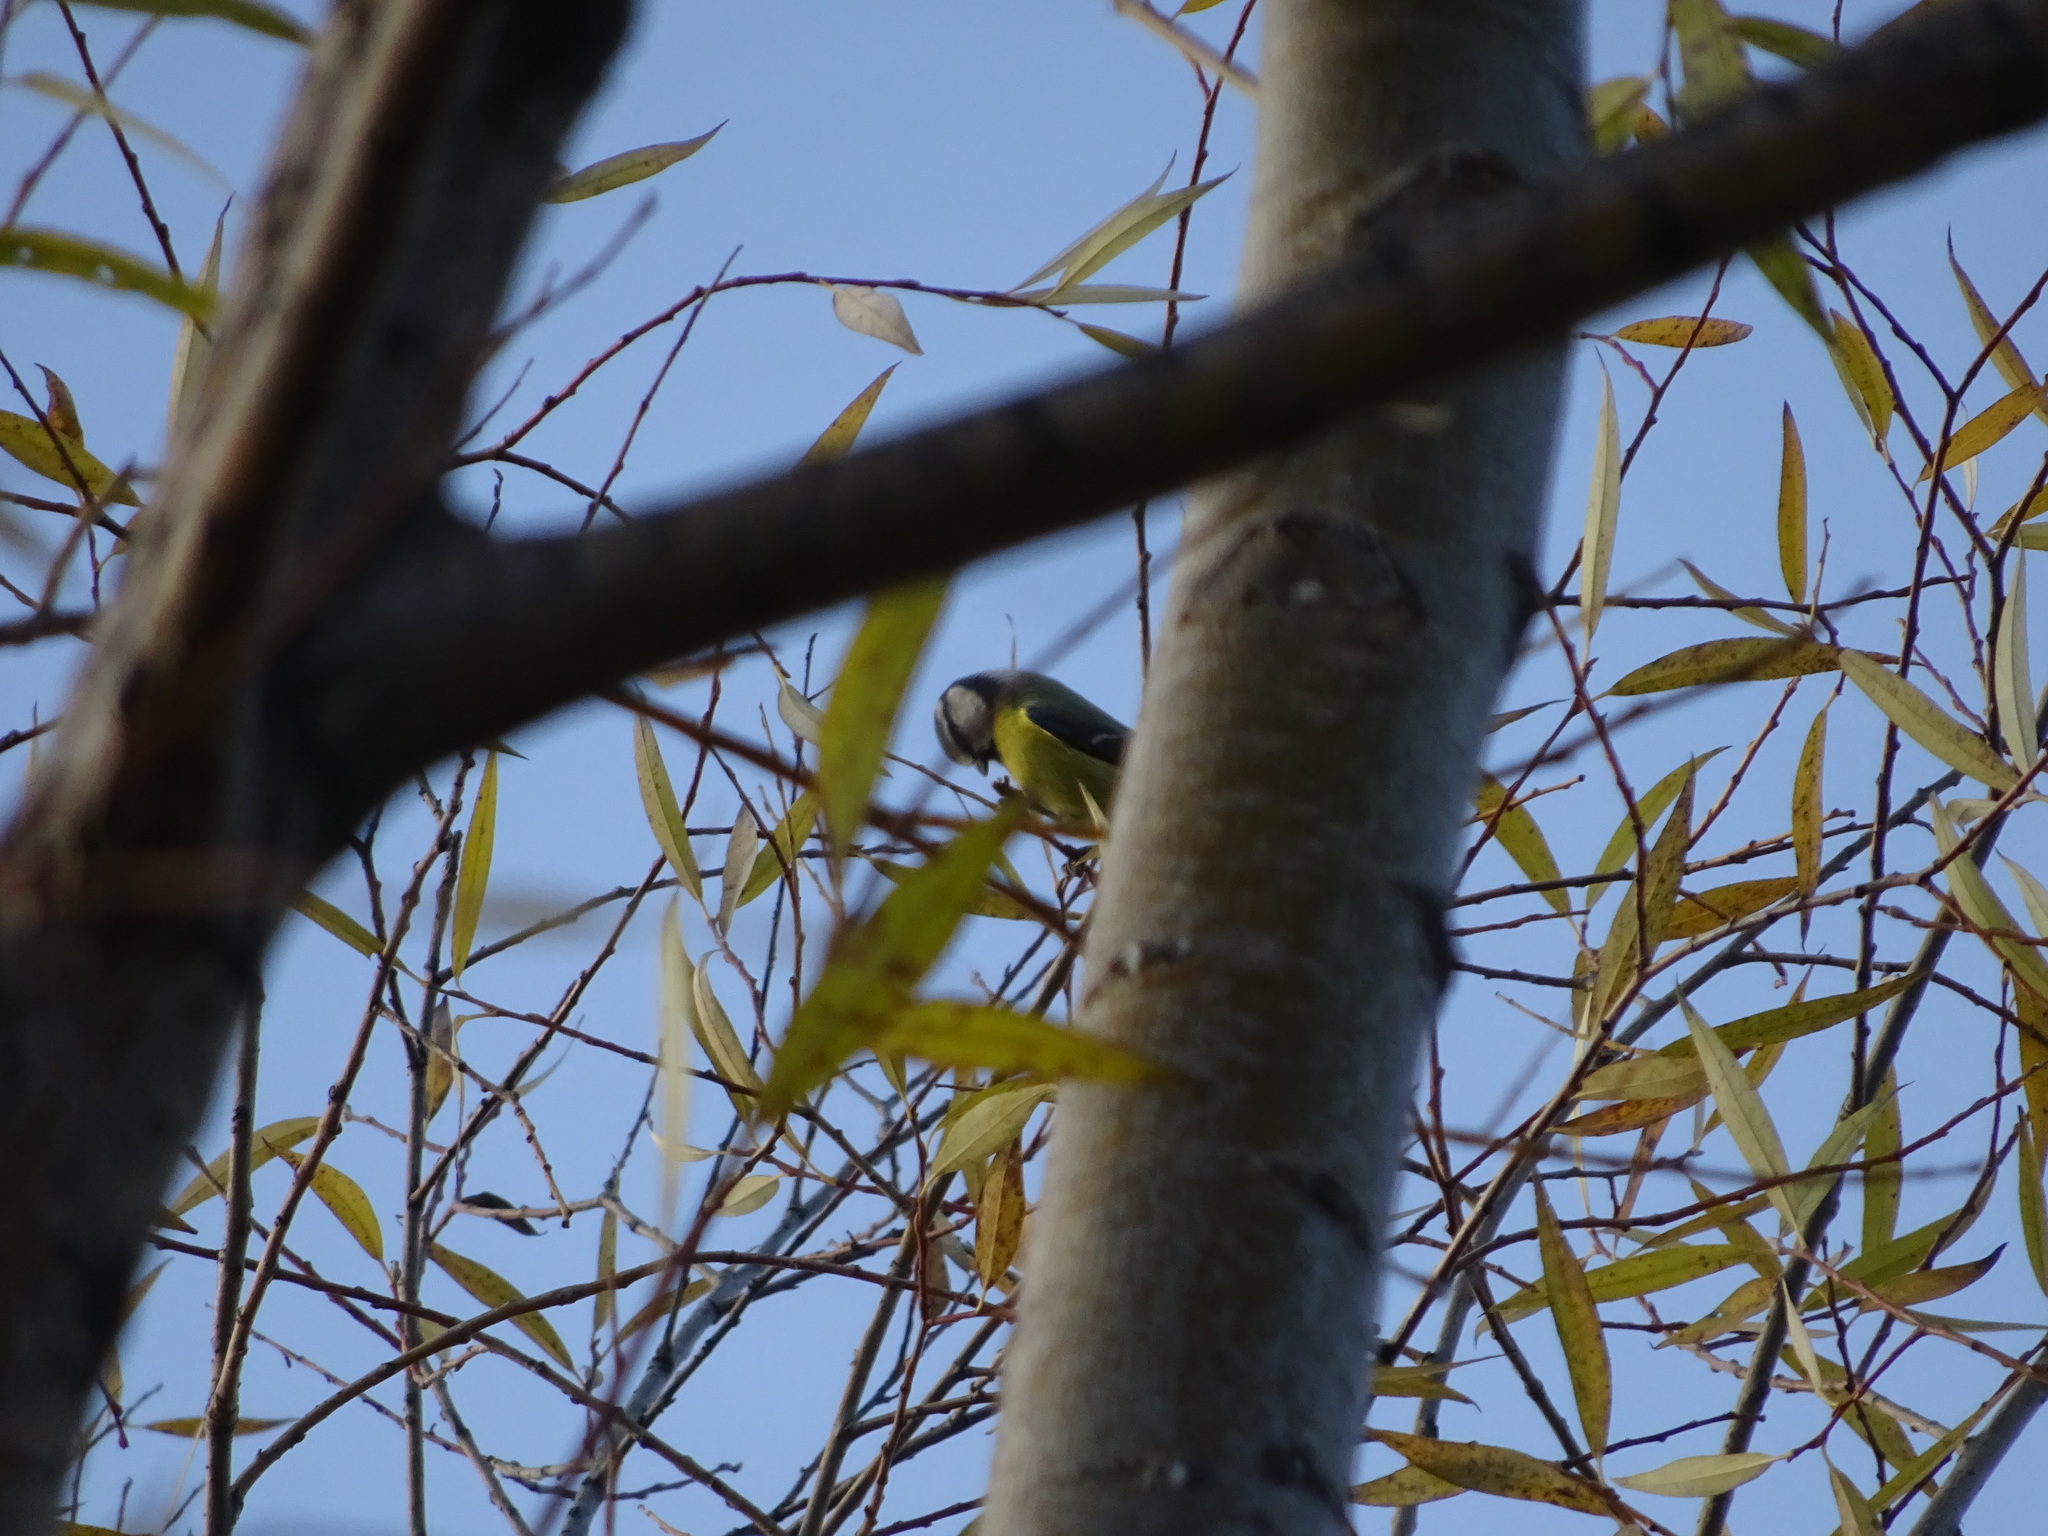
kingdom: Animalia
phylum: Chordata
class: Aves
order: Passeriformes
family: Paridae
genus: Cyanistes
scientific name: Cyanistes caeruleus
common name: Eurasian blue tit
